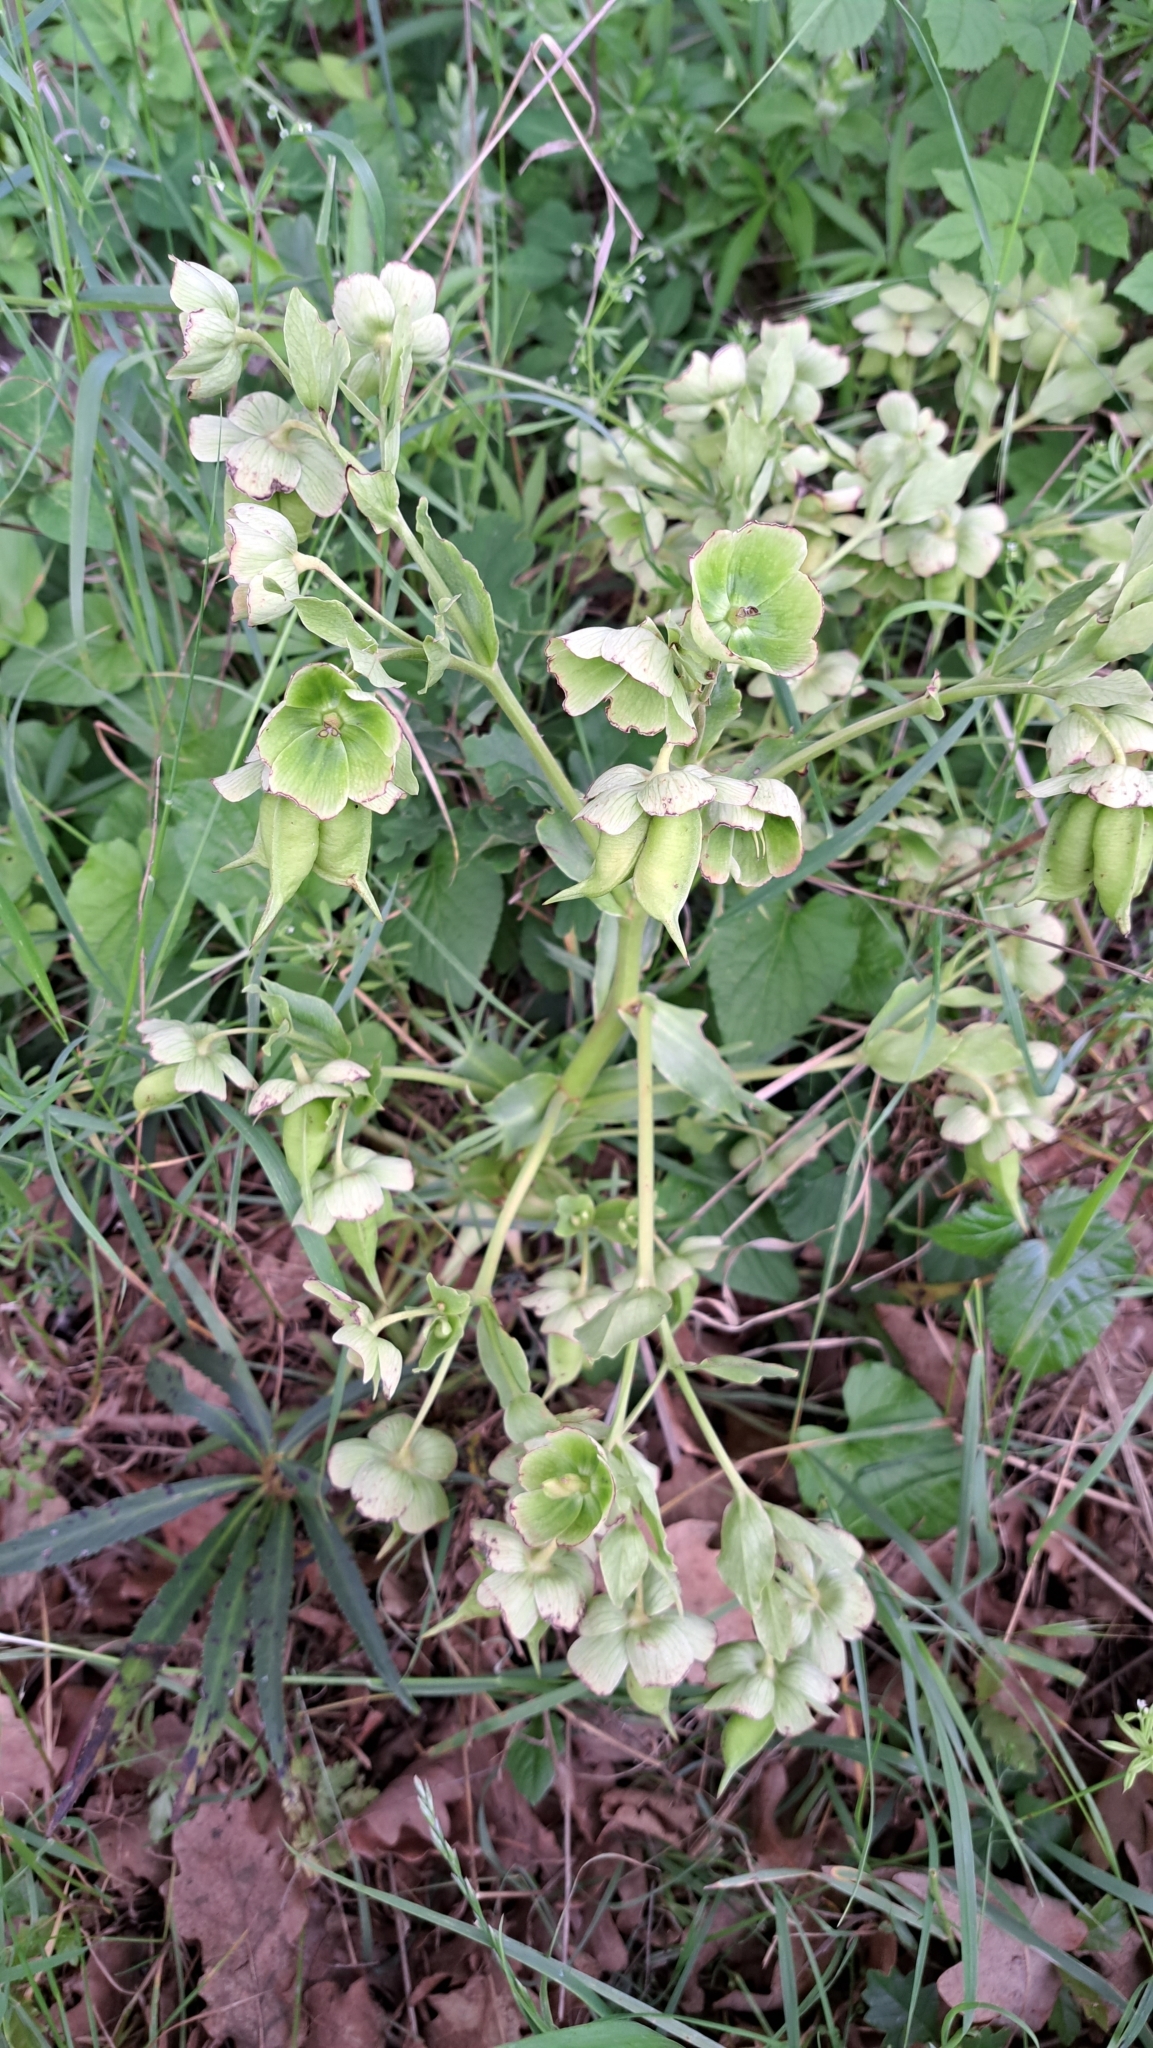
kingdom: Plantae
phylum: Tracheophyta
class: Magnoliopsida
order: Ranunculales
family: Ranunculaceae
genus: Helleborus
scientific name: Helleborus foetidus
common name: Stinking hellebore
